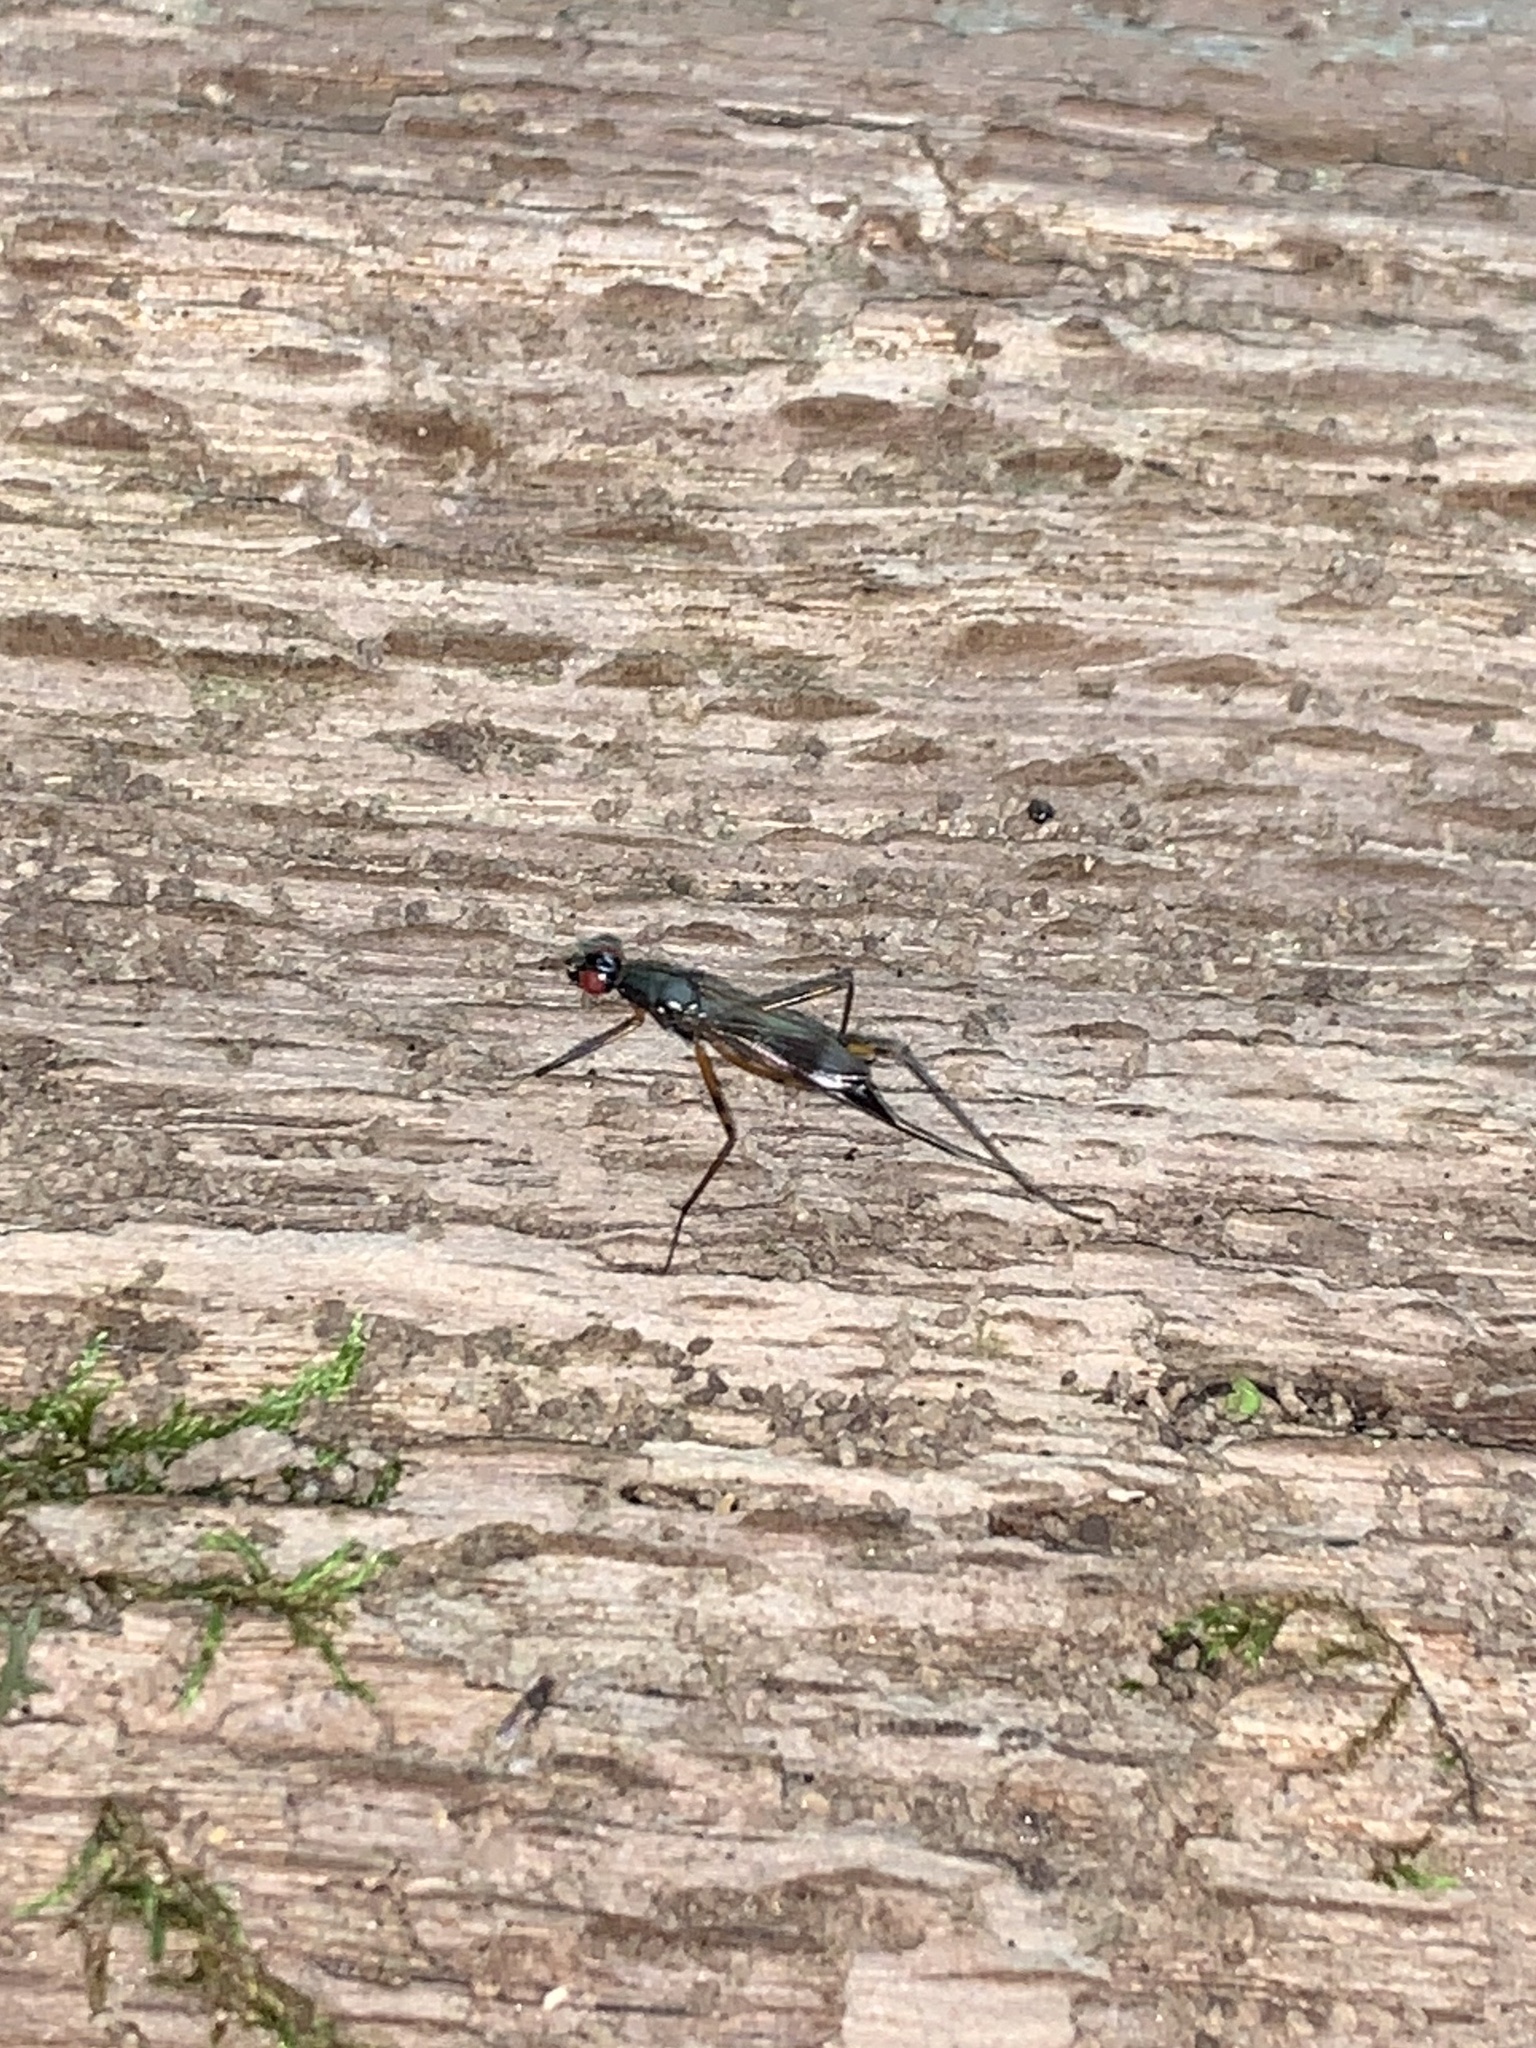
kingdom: Animalia
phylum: Arthropoda
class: Insecta
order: Diptera
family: Micropezidae
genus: Rainieria
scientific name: Rainieria antennaepes
